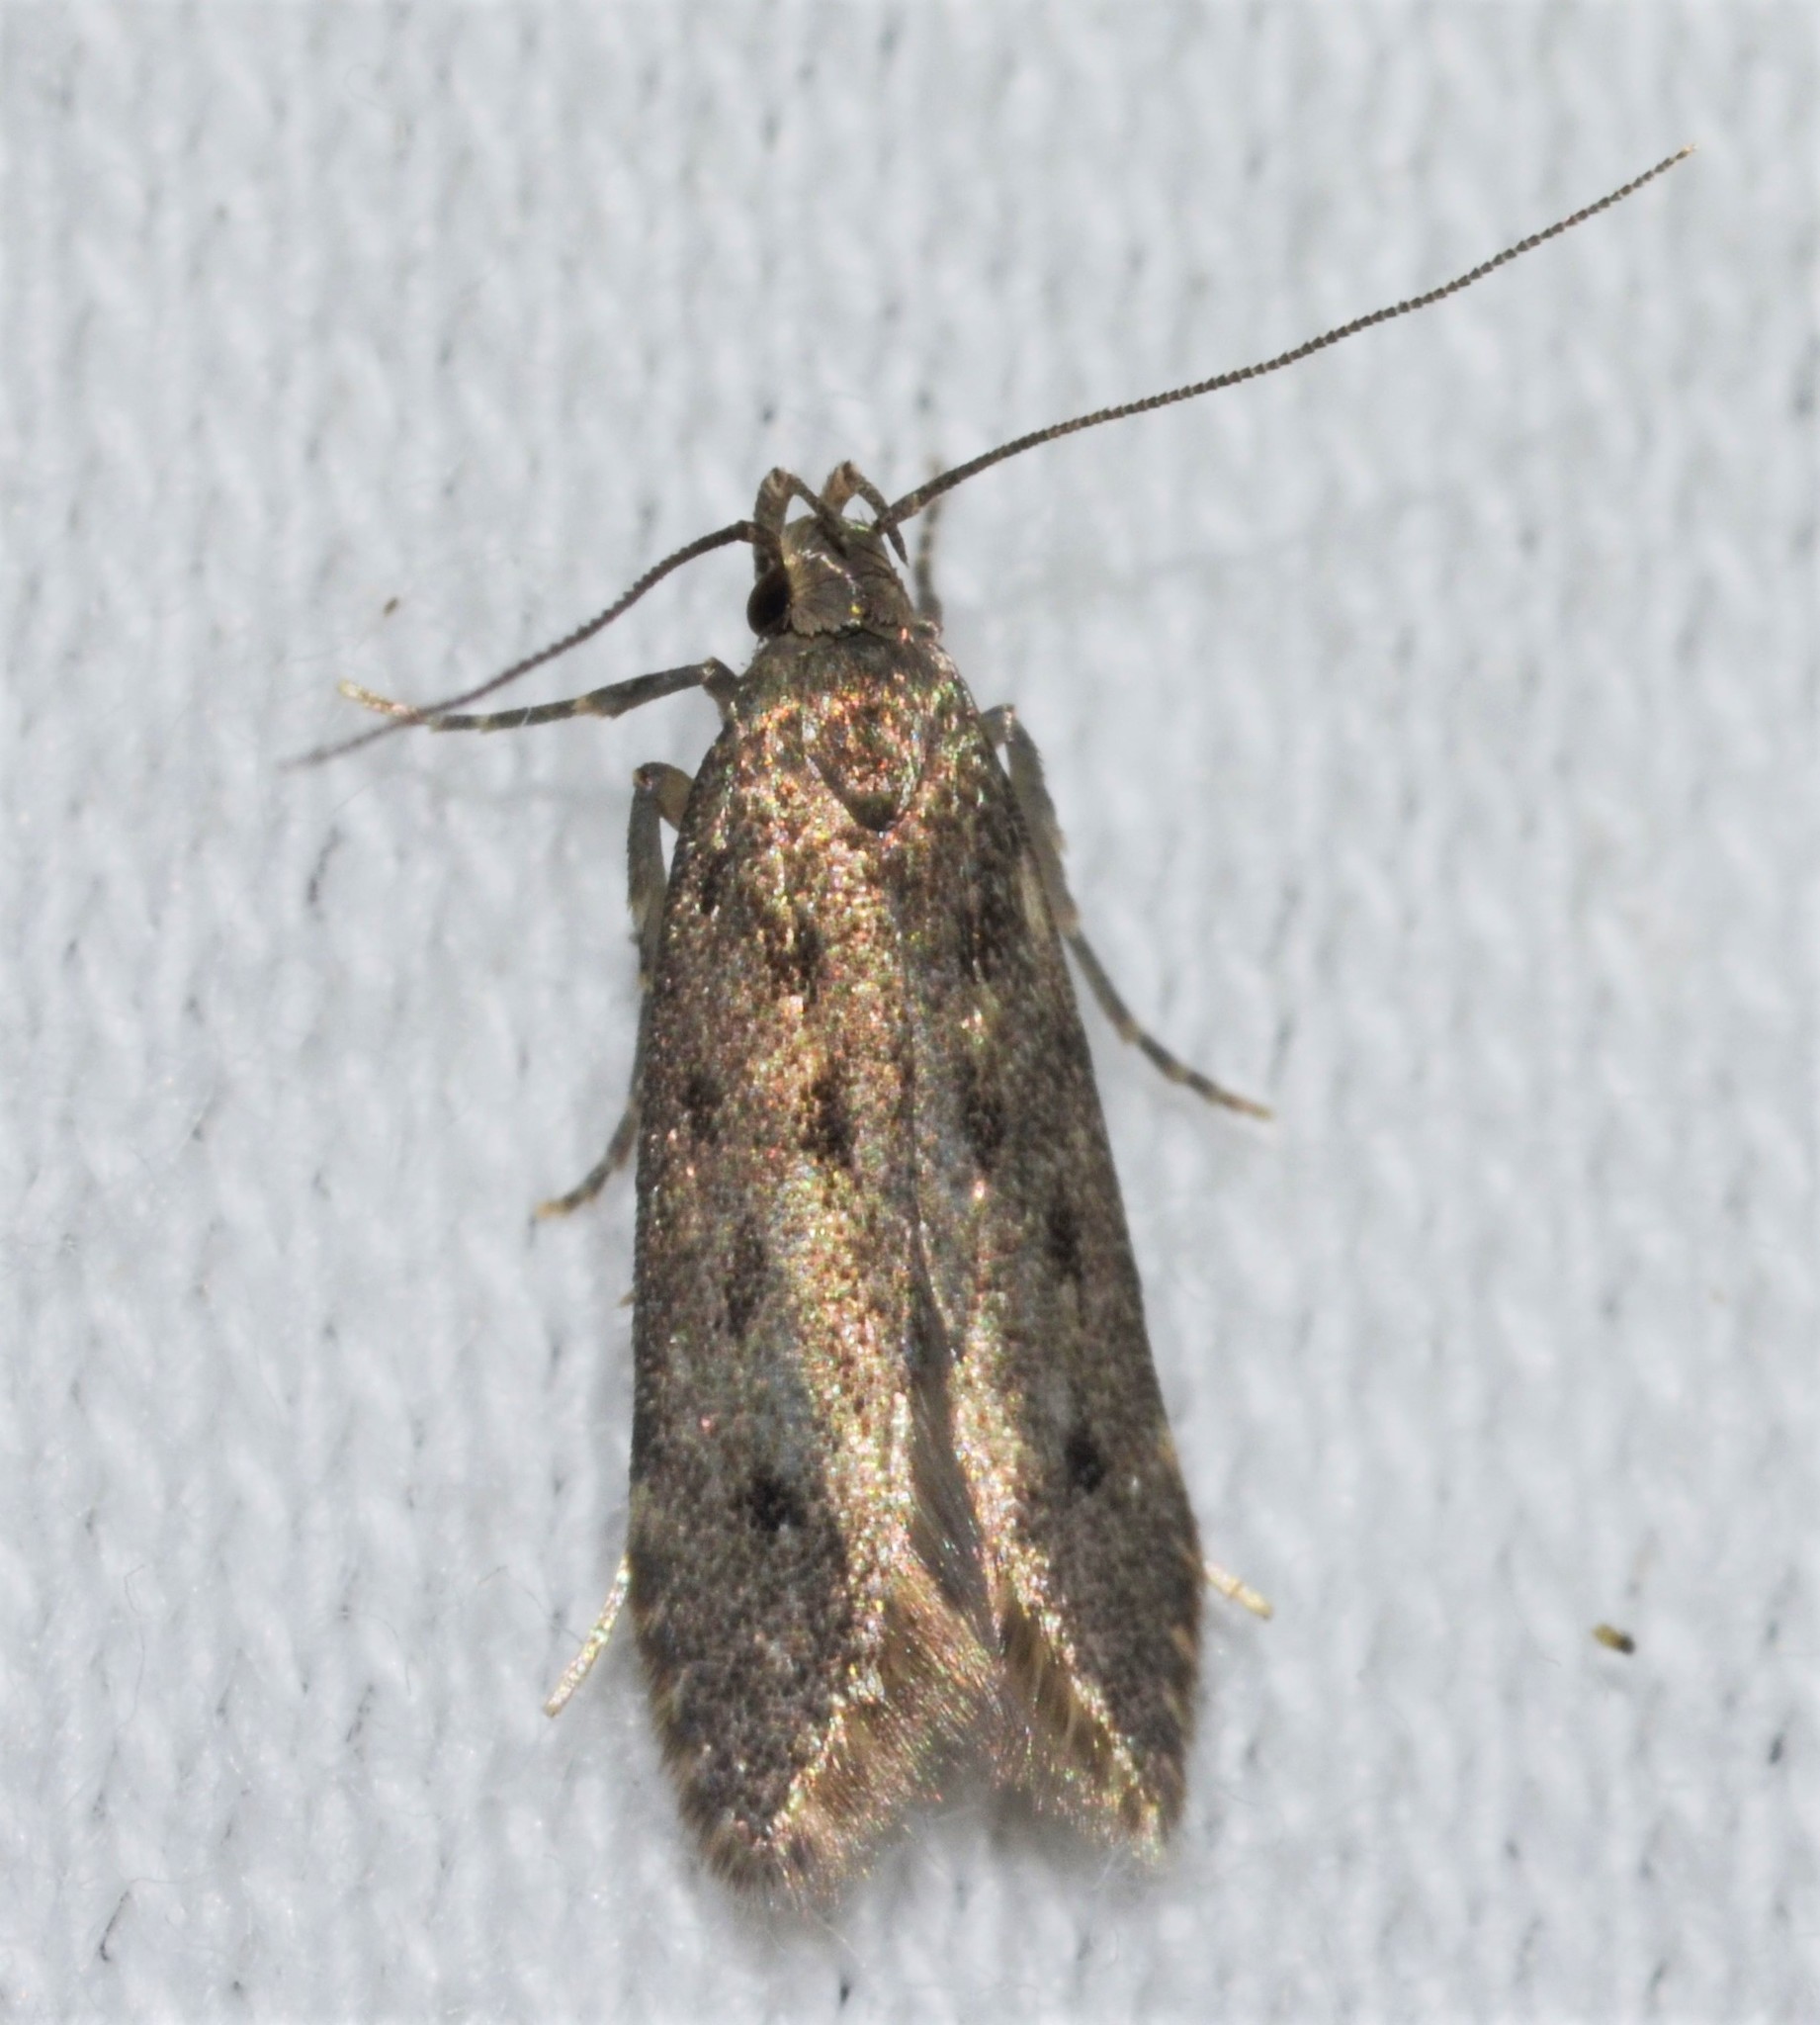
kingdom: Animalia
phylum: Arthropoda
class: Insecta
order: Lepidoptera
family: Gelechiidae
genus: Monochroa
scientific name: Monochroa quinquepunctella
